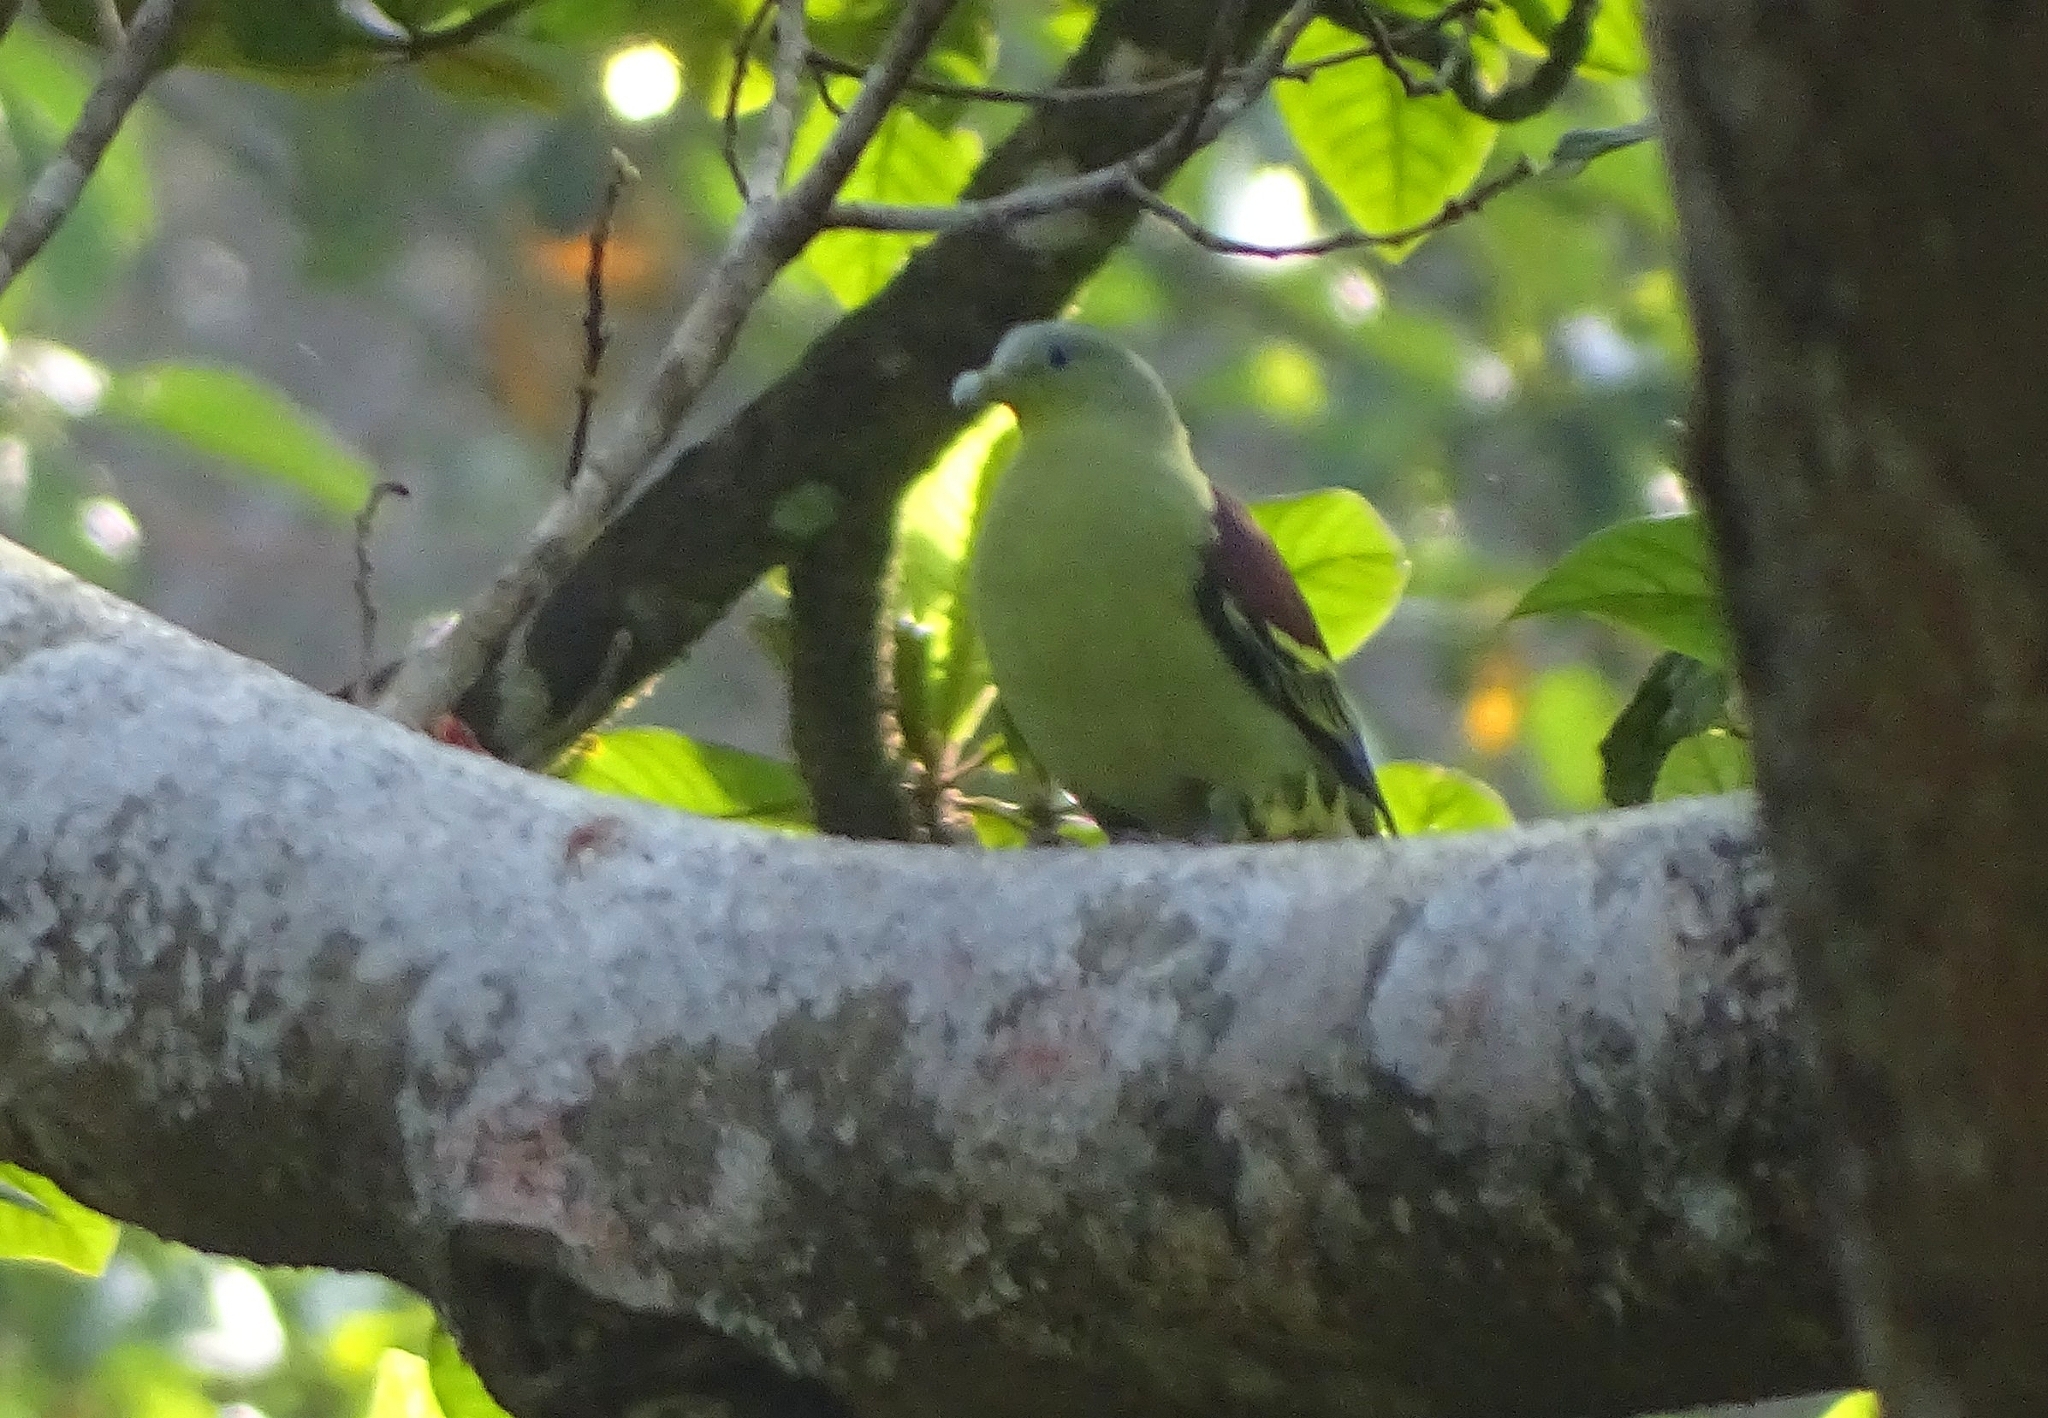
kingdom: Animalia
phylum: Chordata
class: Aves
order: Columbiformes
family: Columbidae
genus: Treron
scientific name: Treron affinis
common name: Grey-fronted green pigeon
